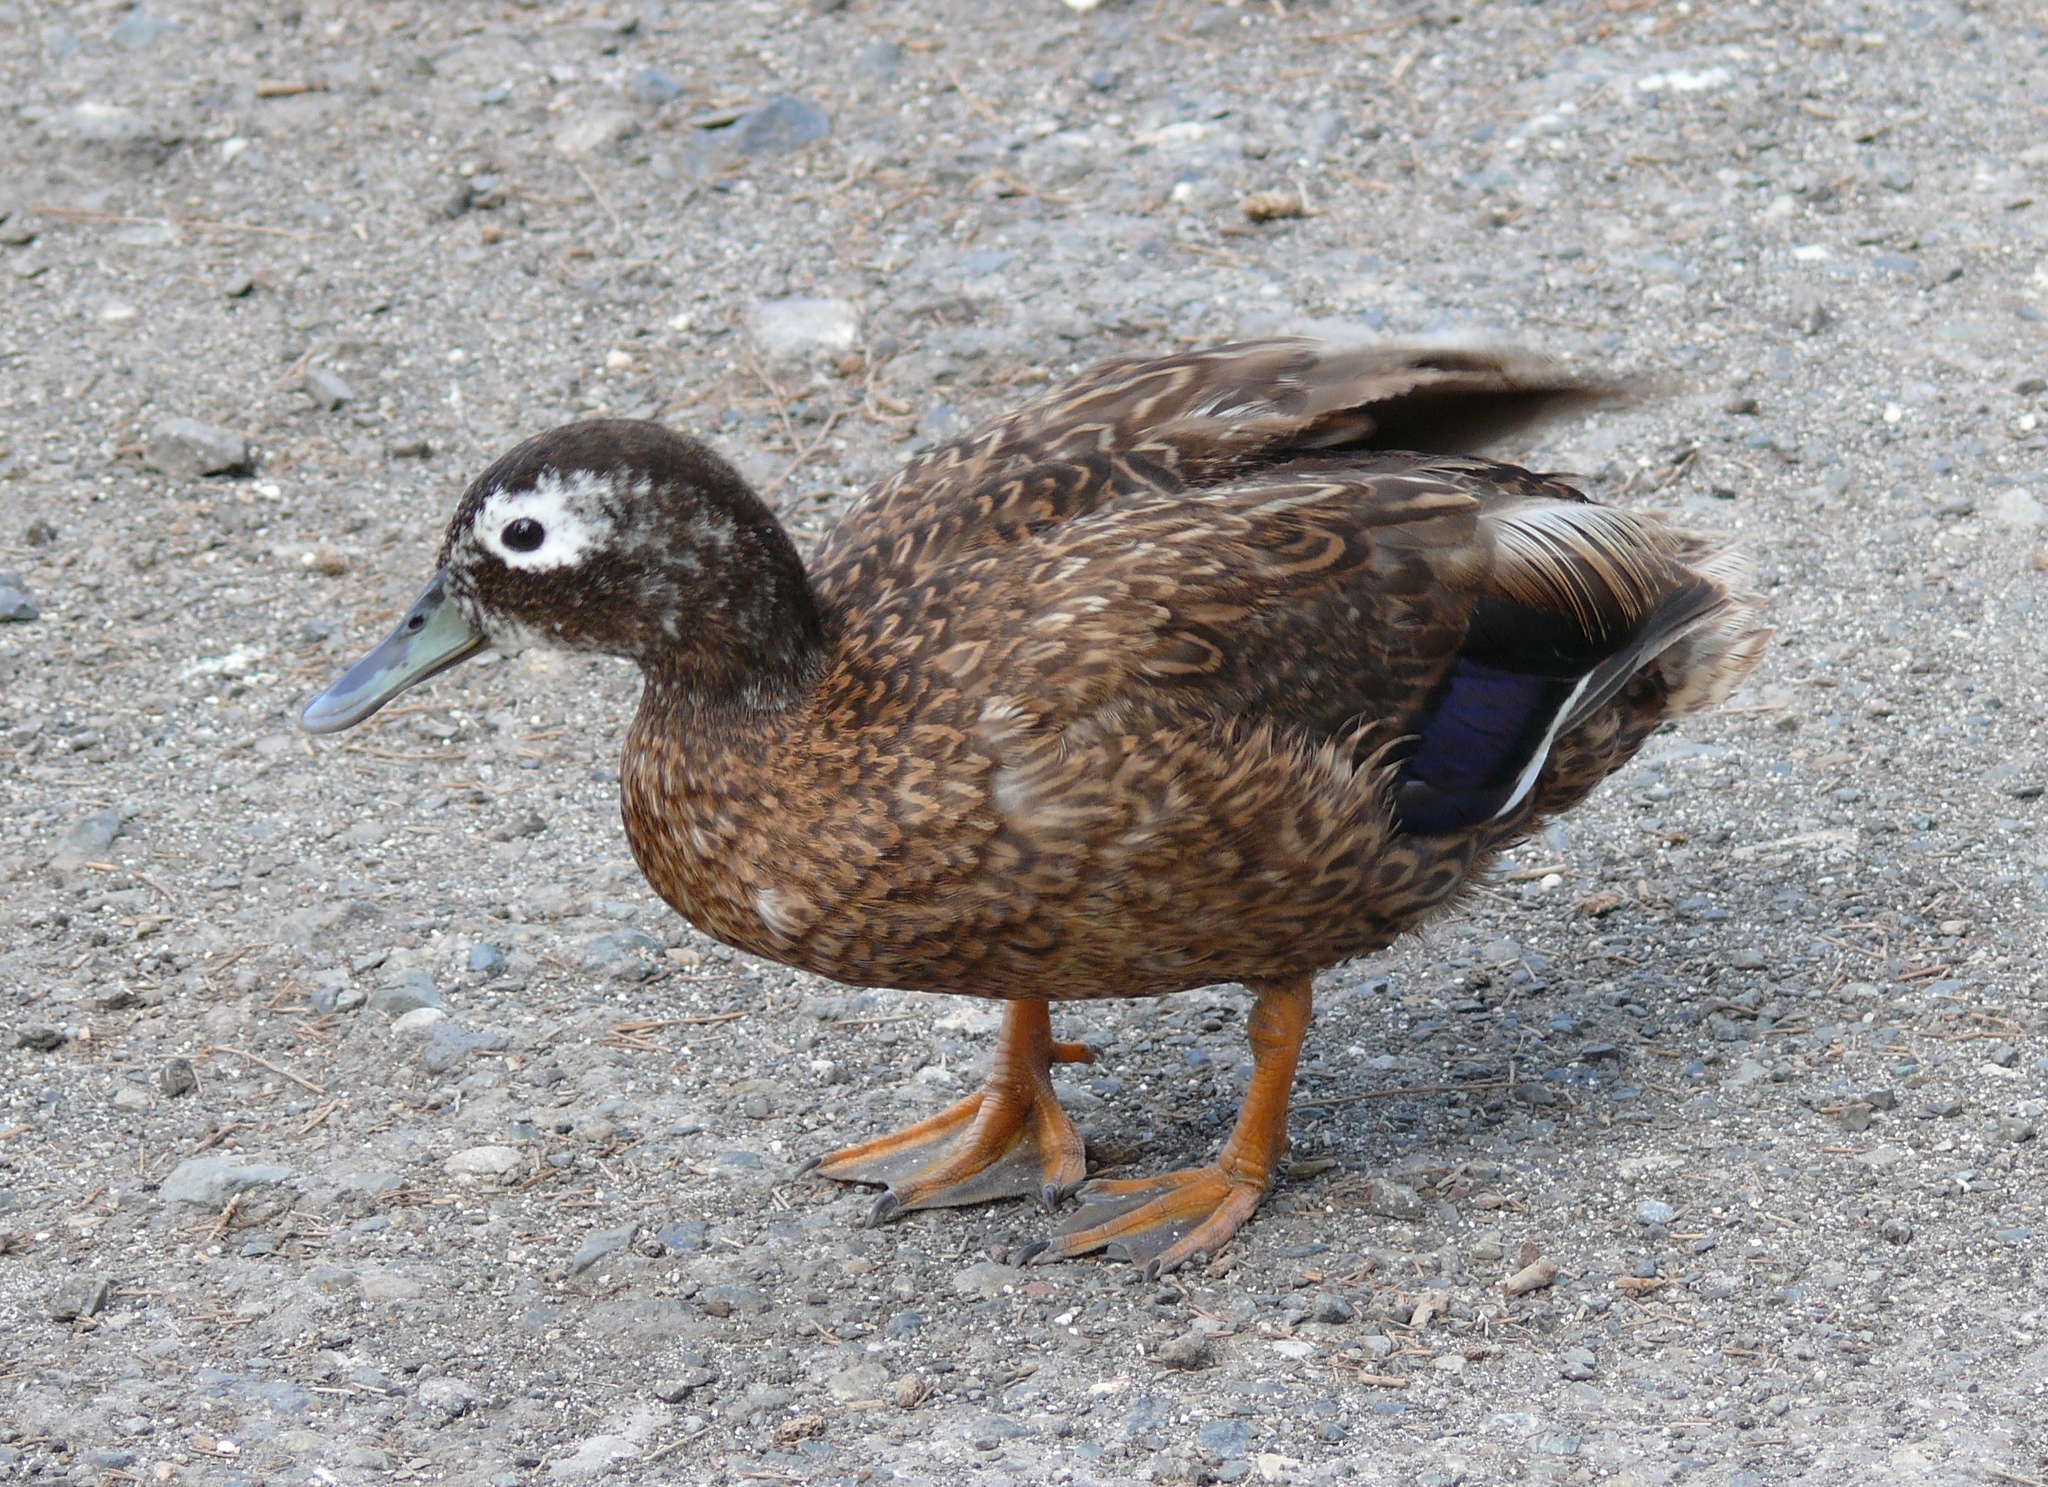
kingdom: Animalia
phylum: Chordata
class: Aves
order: Anseriformes
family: Anatidae
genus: Anas
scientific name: Anas laysanensis
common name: Laysan duck
